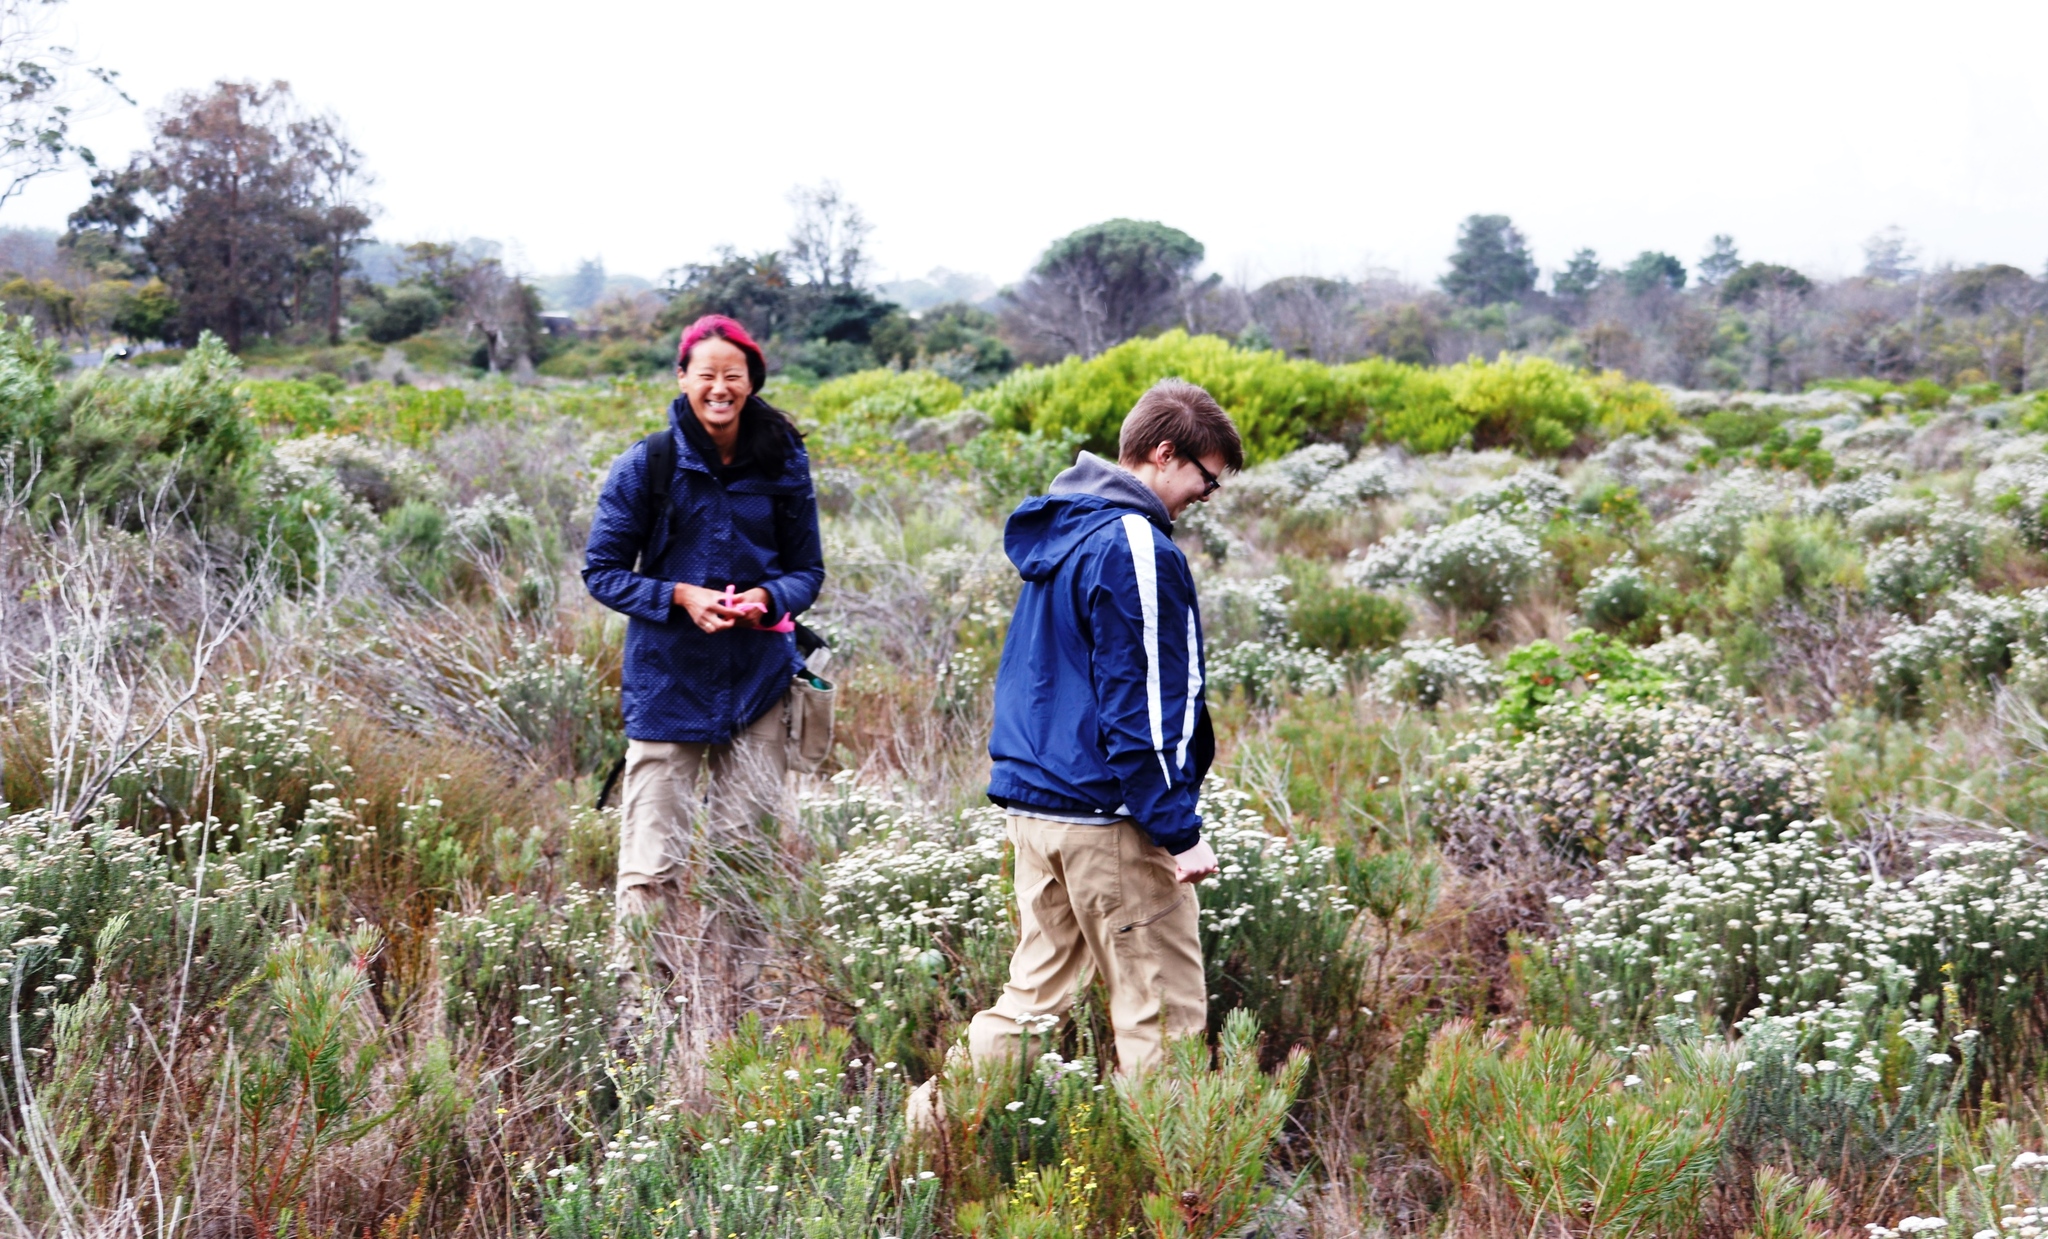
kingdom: Plantae
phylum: Tracheophyta
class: Magnoliopsida
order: Proteales
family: Proteaceae
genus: Protea
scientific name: Protea scolymocephala
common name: Thistle sugarbush
